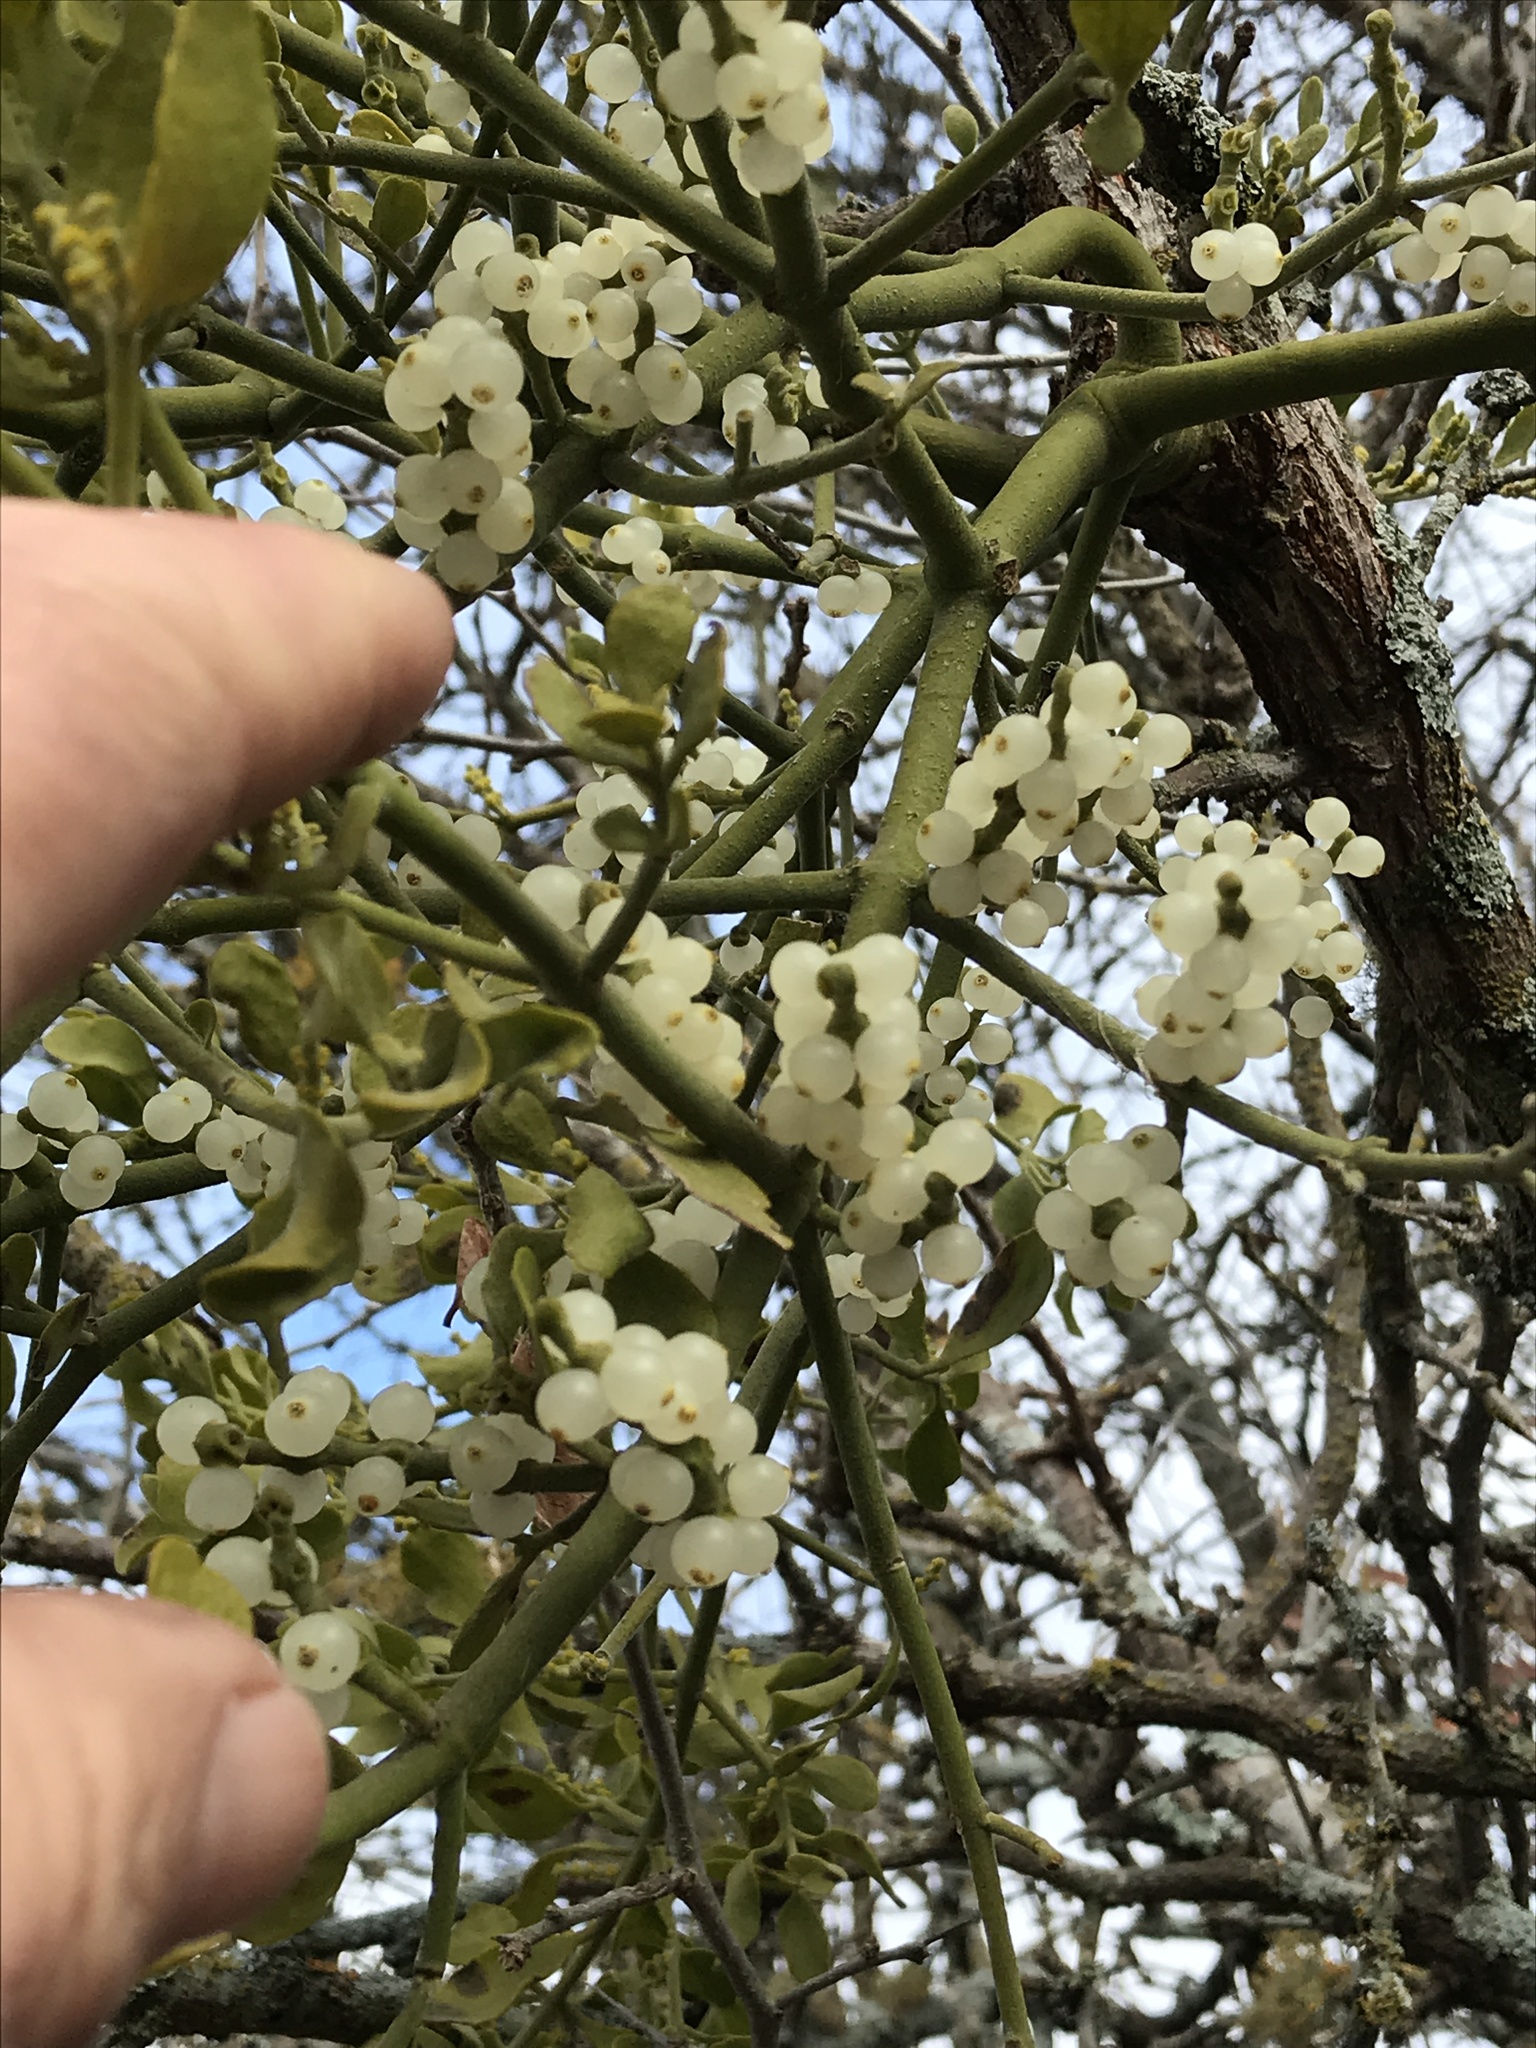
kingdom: Plantae
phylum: Tracheophyta
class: Magnoliopsida
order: Santalales
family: Viscaceae
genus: Phoradendron
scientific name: Phoradendron leucarpum
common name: Pacific mistletoe
